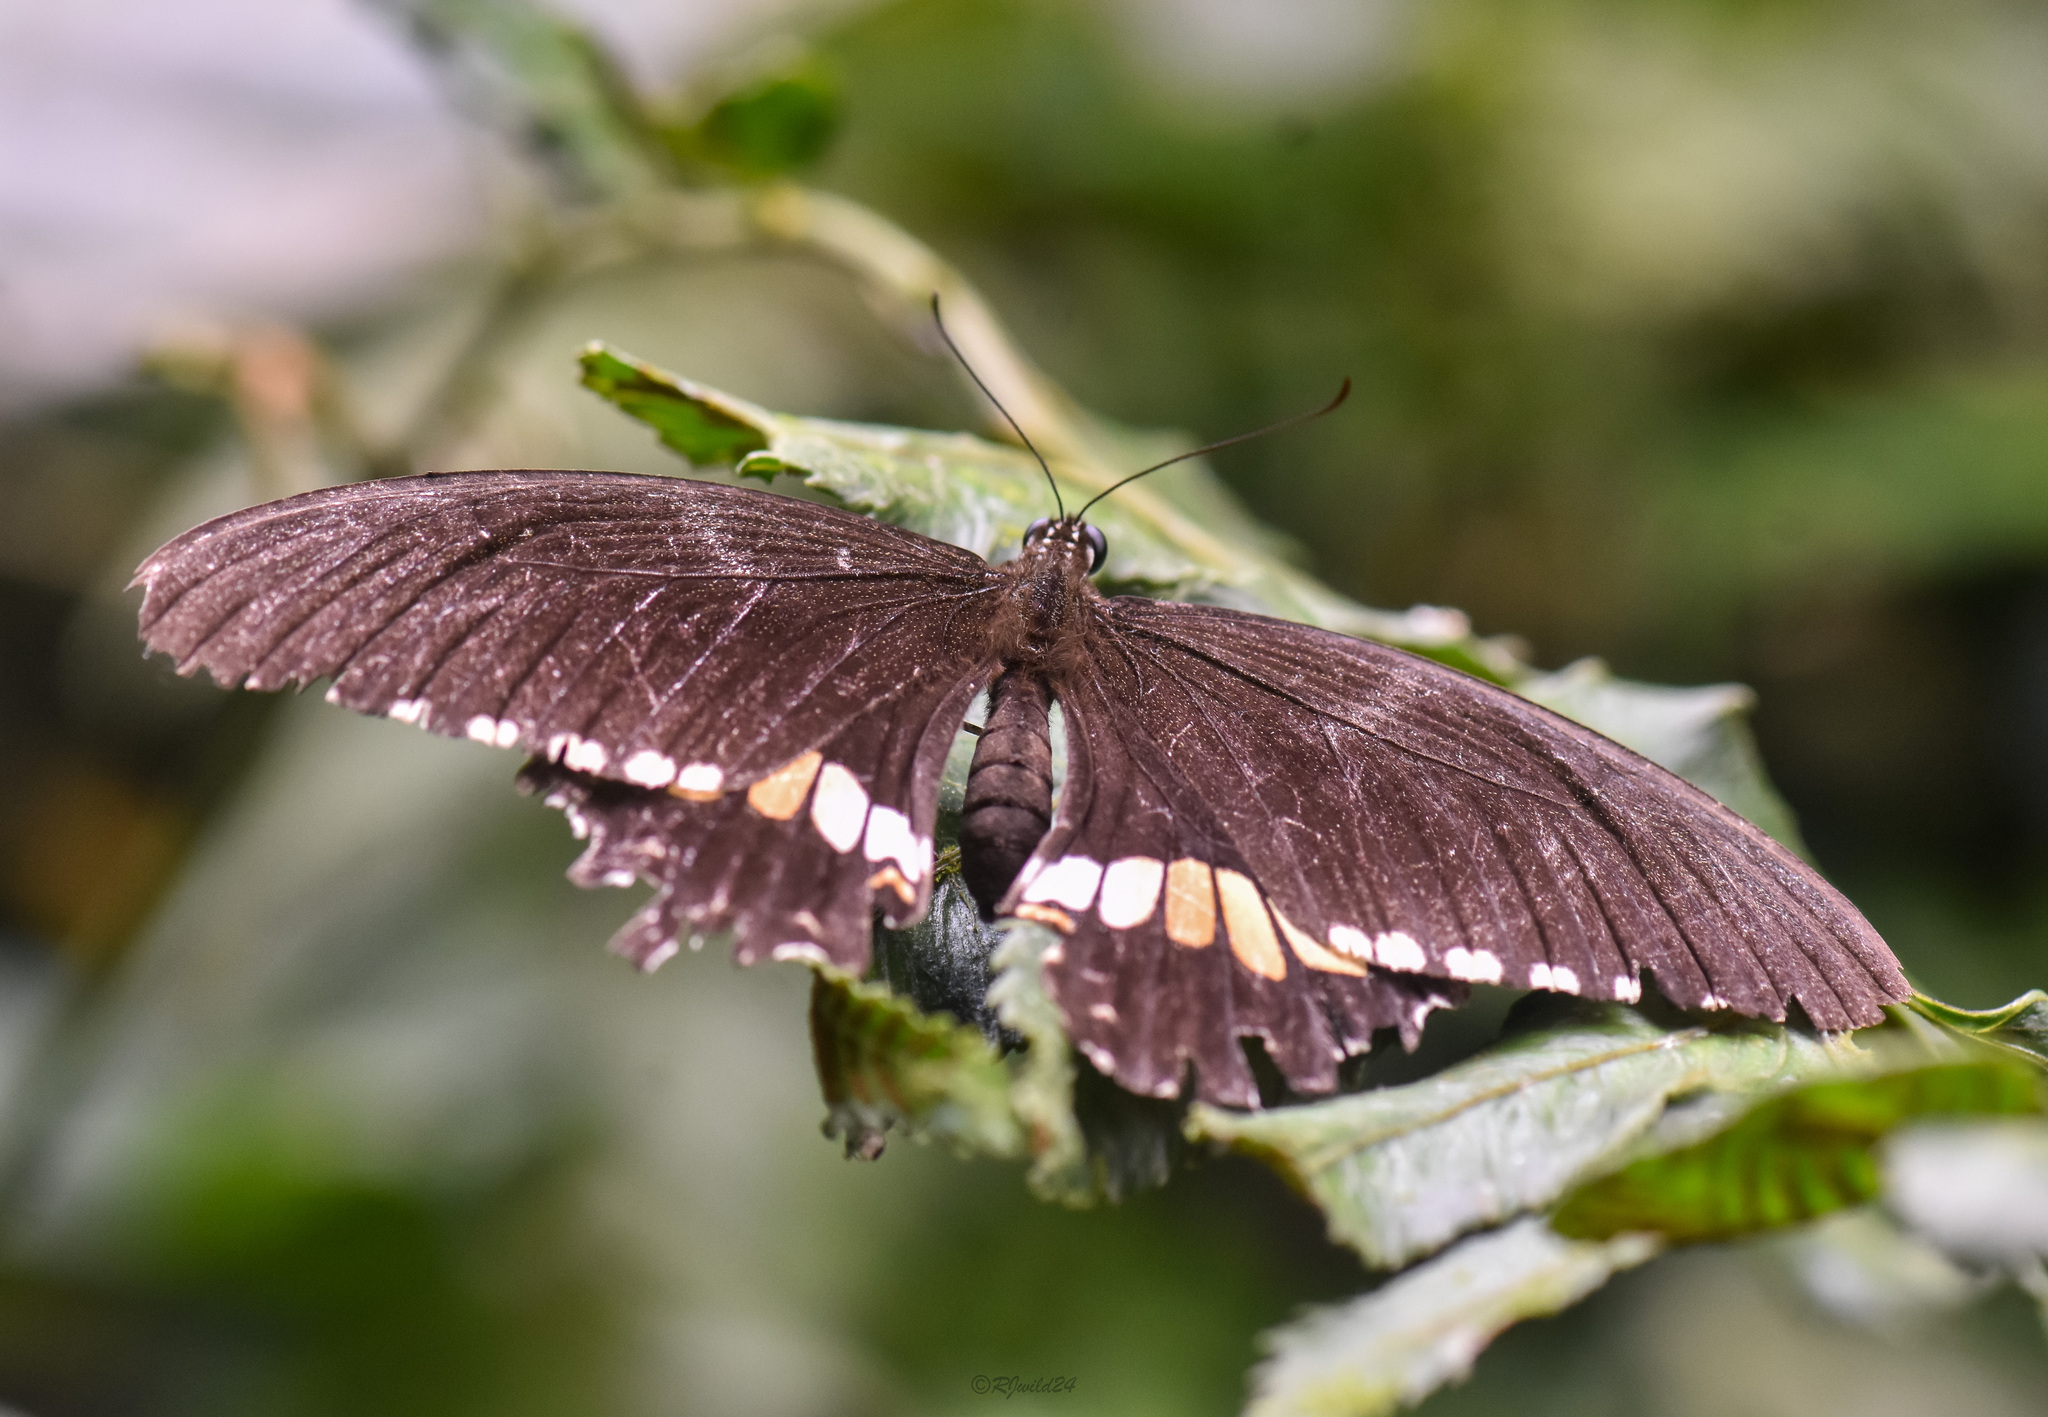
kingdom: Animalia
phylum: Arthropoda
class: Insecta
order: Lepidoptera
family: Papilionidae
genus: Papilio
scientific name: Papilio polytes
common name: Common mormon
